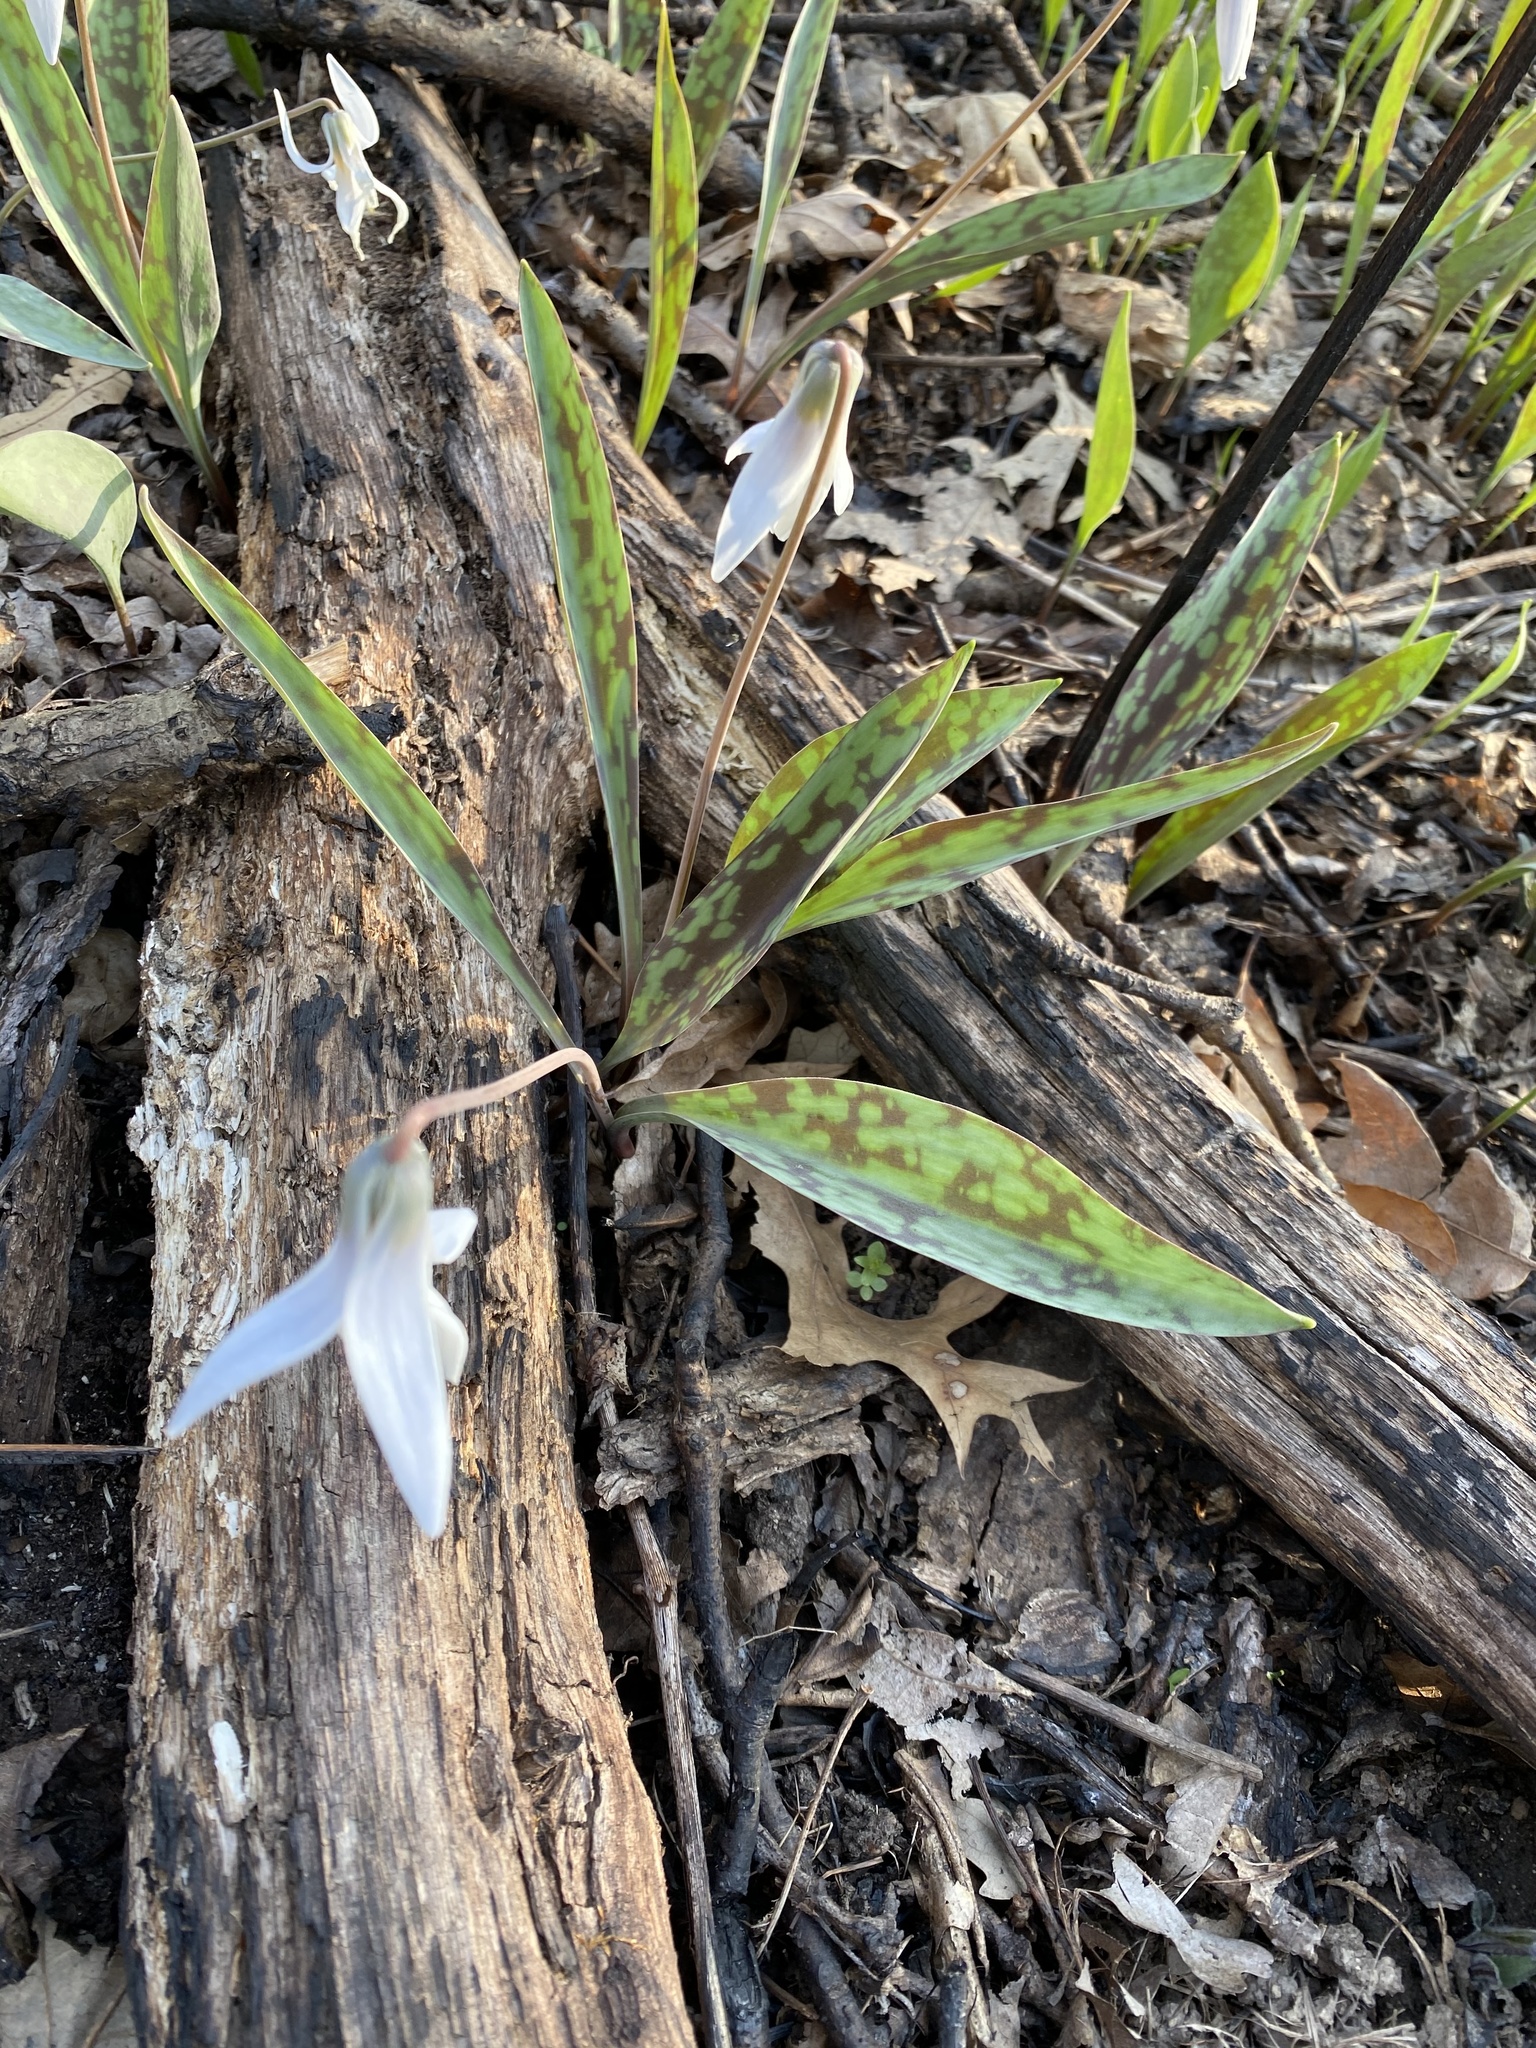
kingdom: Plantae
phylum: Tracheophyta
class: Liliopsida
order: Liliales
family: Liliaceae
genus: Erythronium
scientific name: Erythronium albidum
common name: White trout-lily
